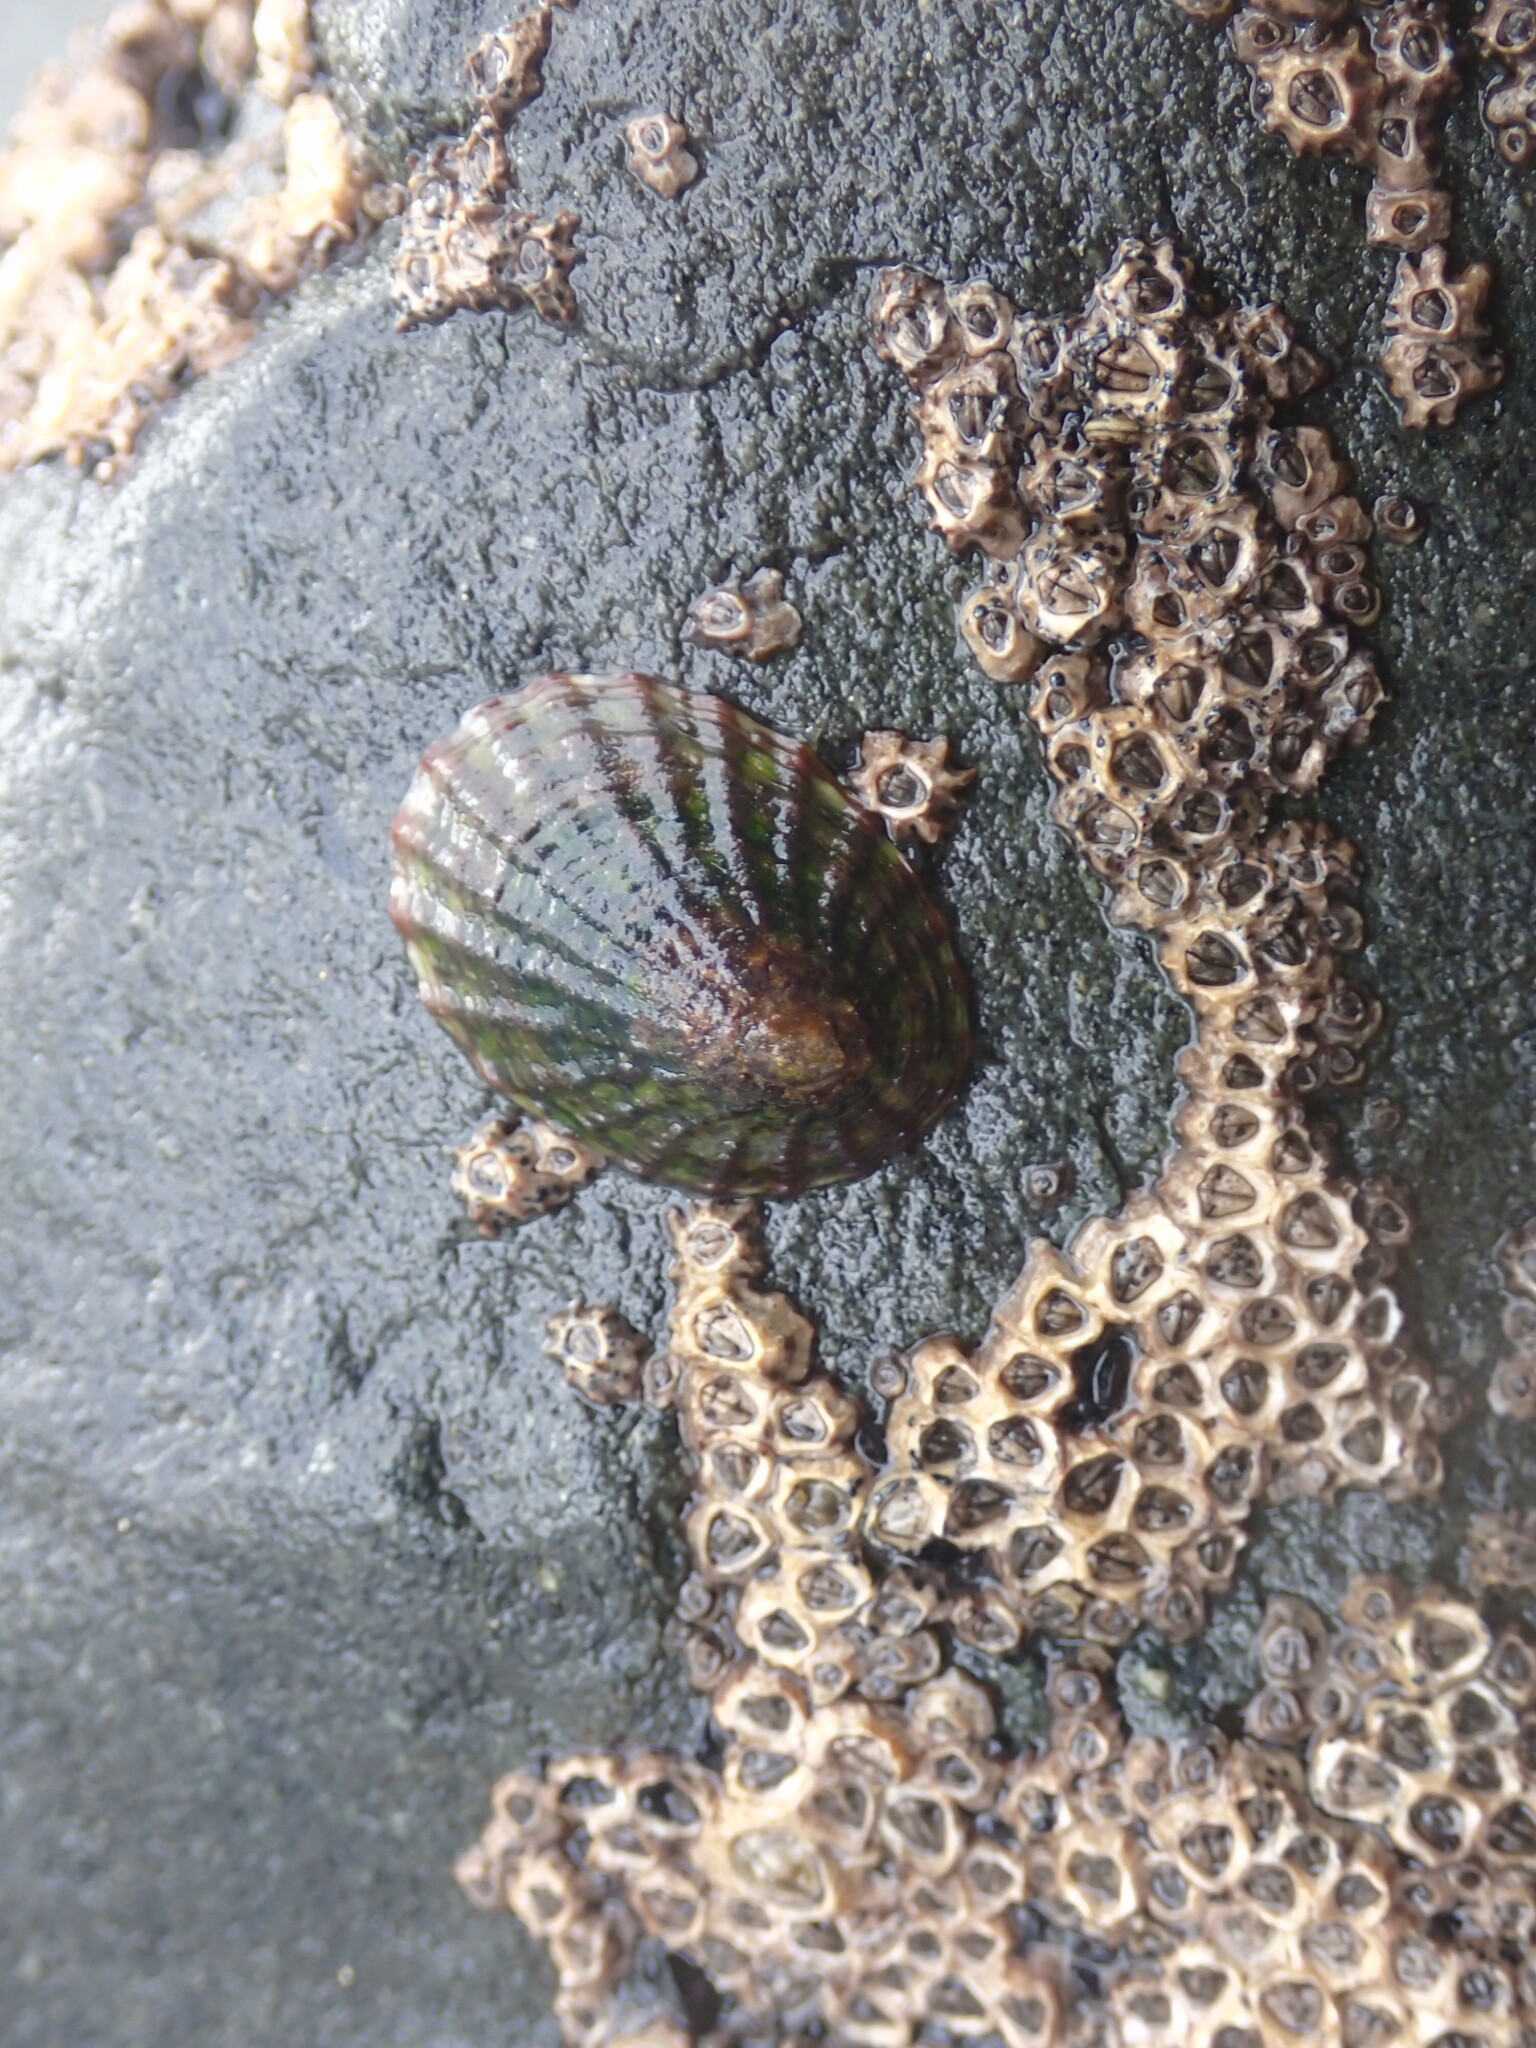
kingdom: Animalia
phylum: Mollusca
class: Gastropoda
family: Nacellidae
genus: Cellana
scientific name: Cellana denticulata
